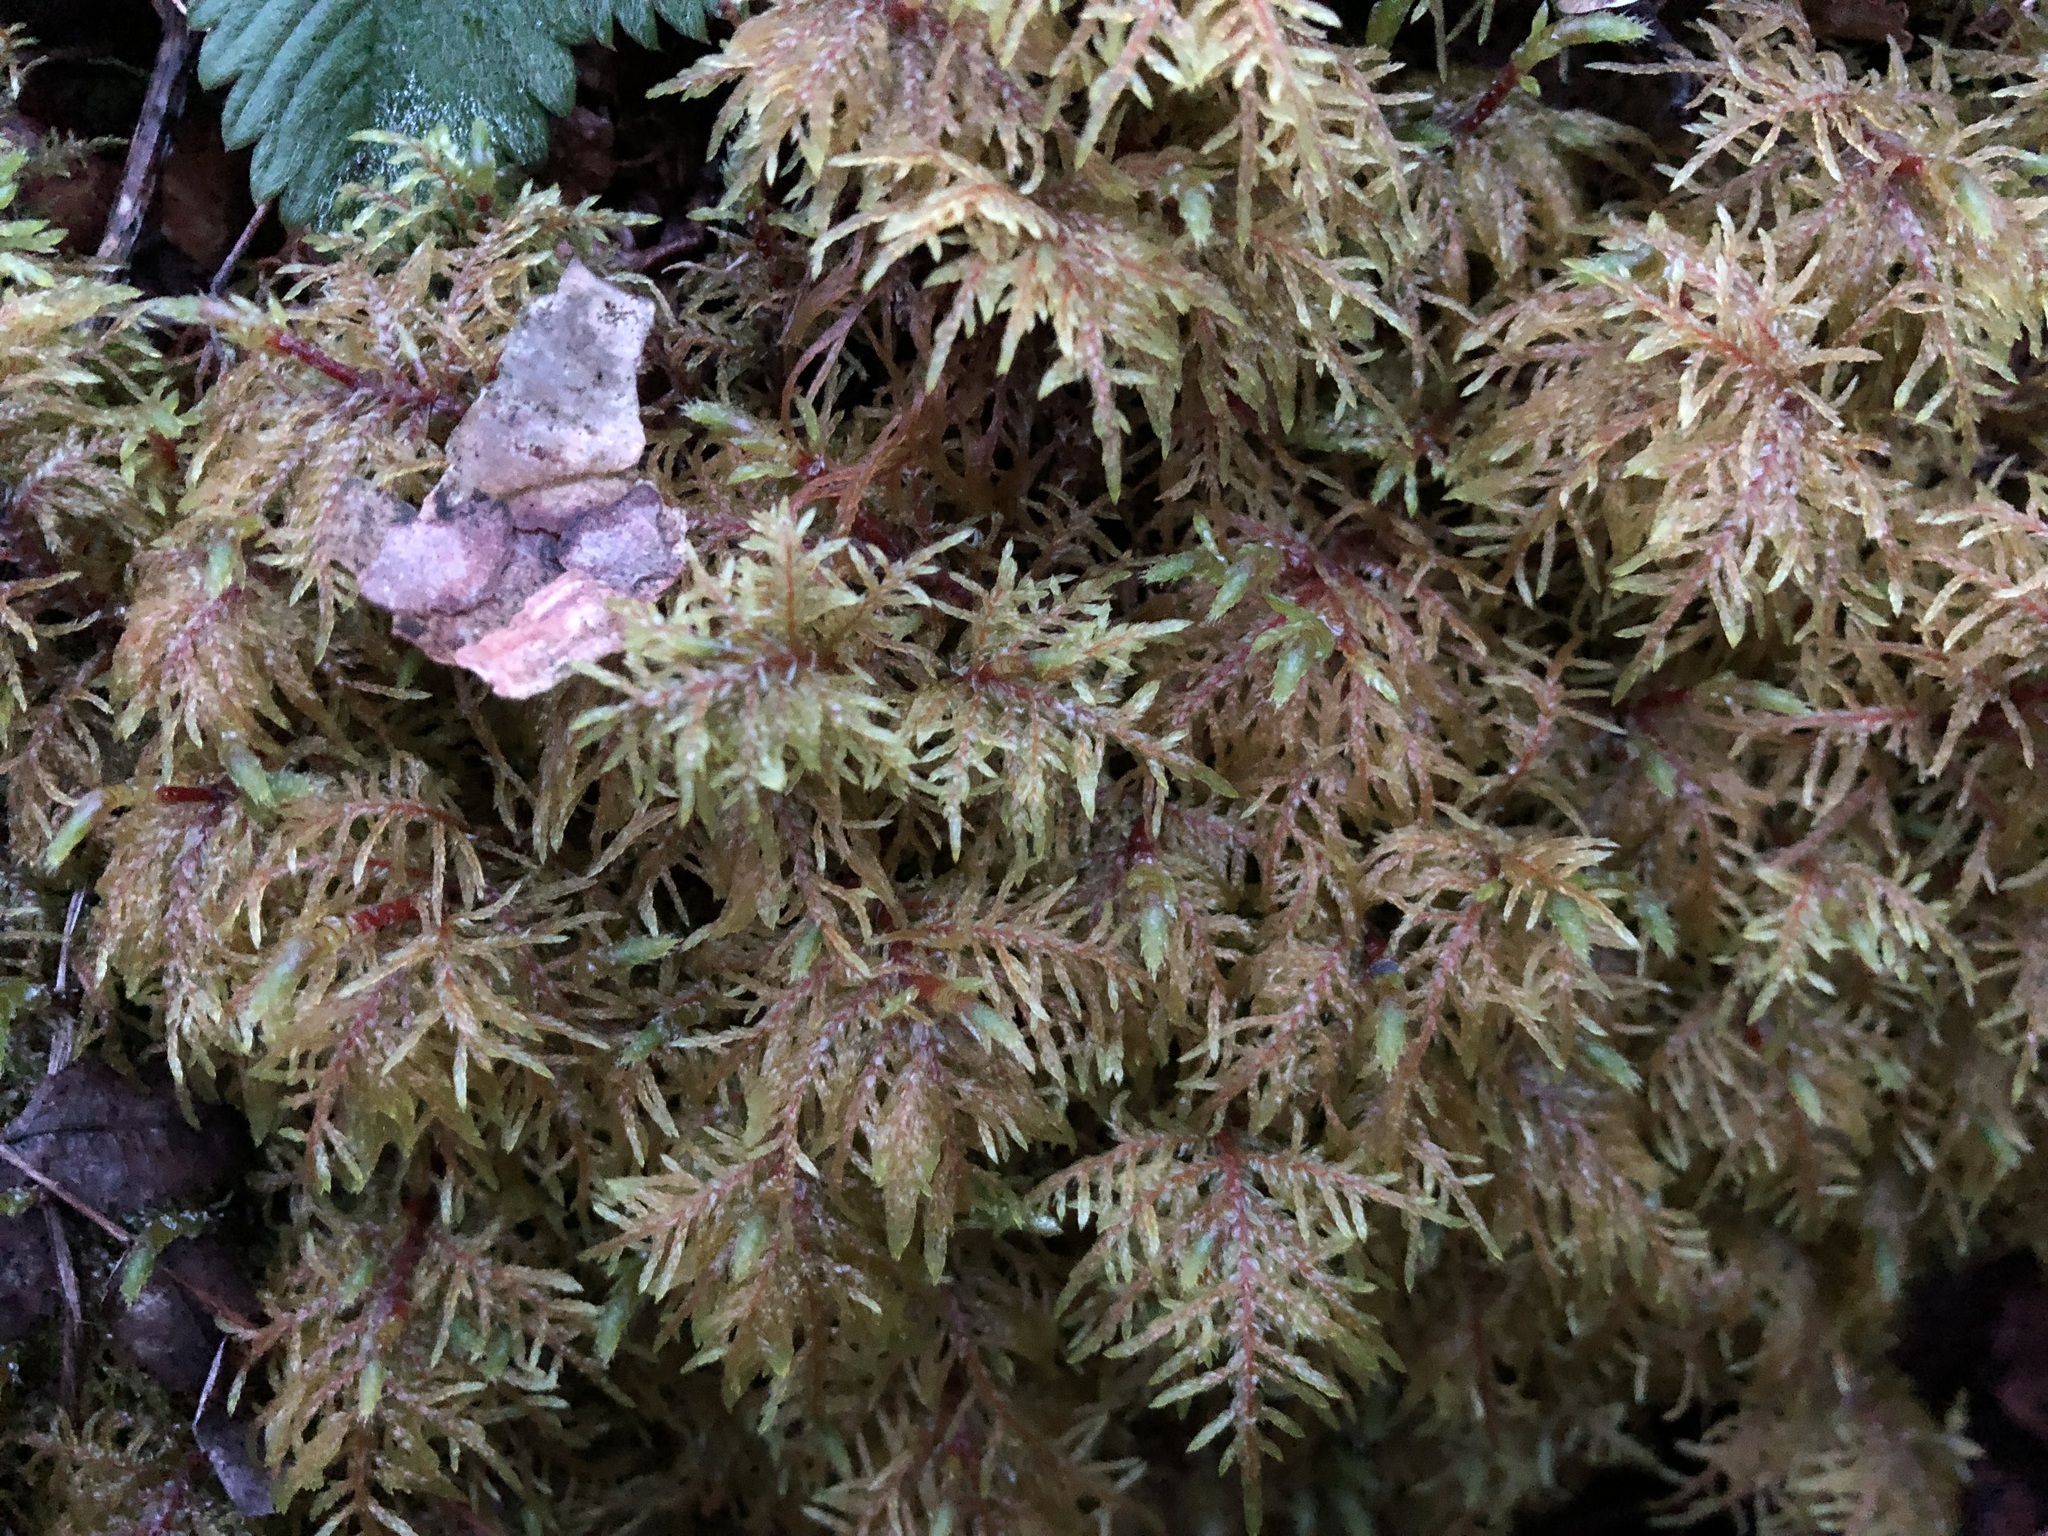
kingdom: Plantae
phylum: Bryophyta
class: Bryopsida
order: Hypnales
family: Hylocomiaceae
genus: Hylocomium
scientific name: Hylocomium splendens
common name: Stairstep moss
